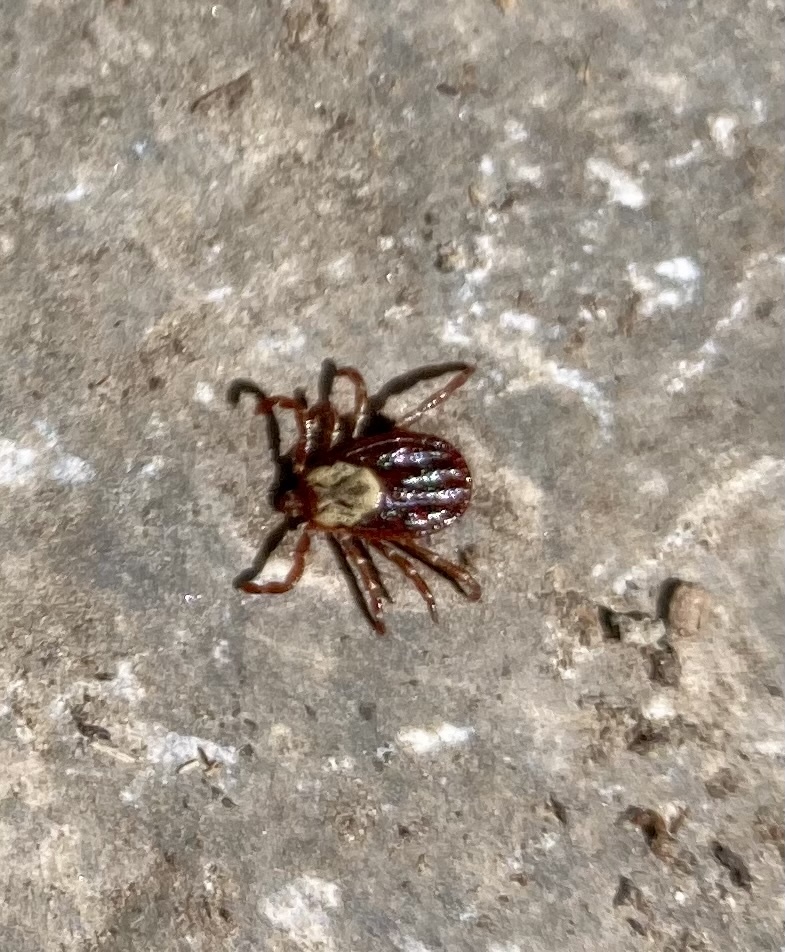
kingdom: Animalia
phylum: Arthropoda
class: Arachnida
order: Ixodida
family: Ixodidae
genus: Dermacentor
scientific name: Dermacentor andersoni
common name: Rocky mountain wood tick
